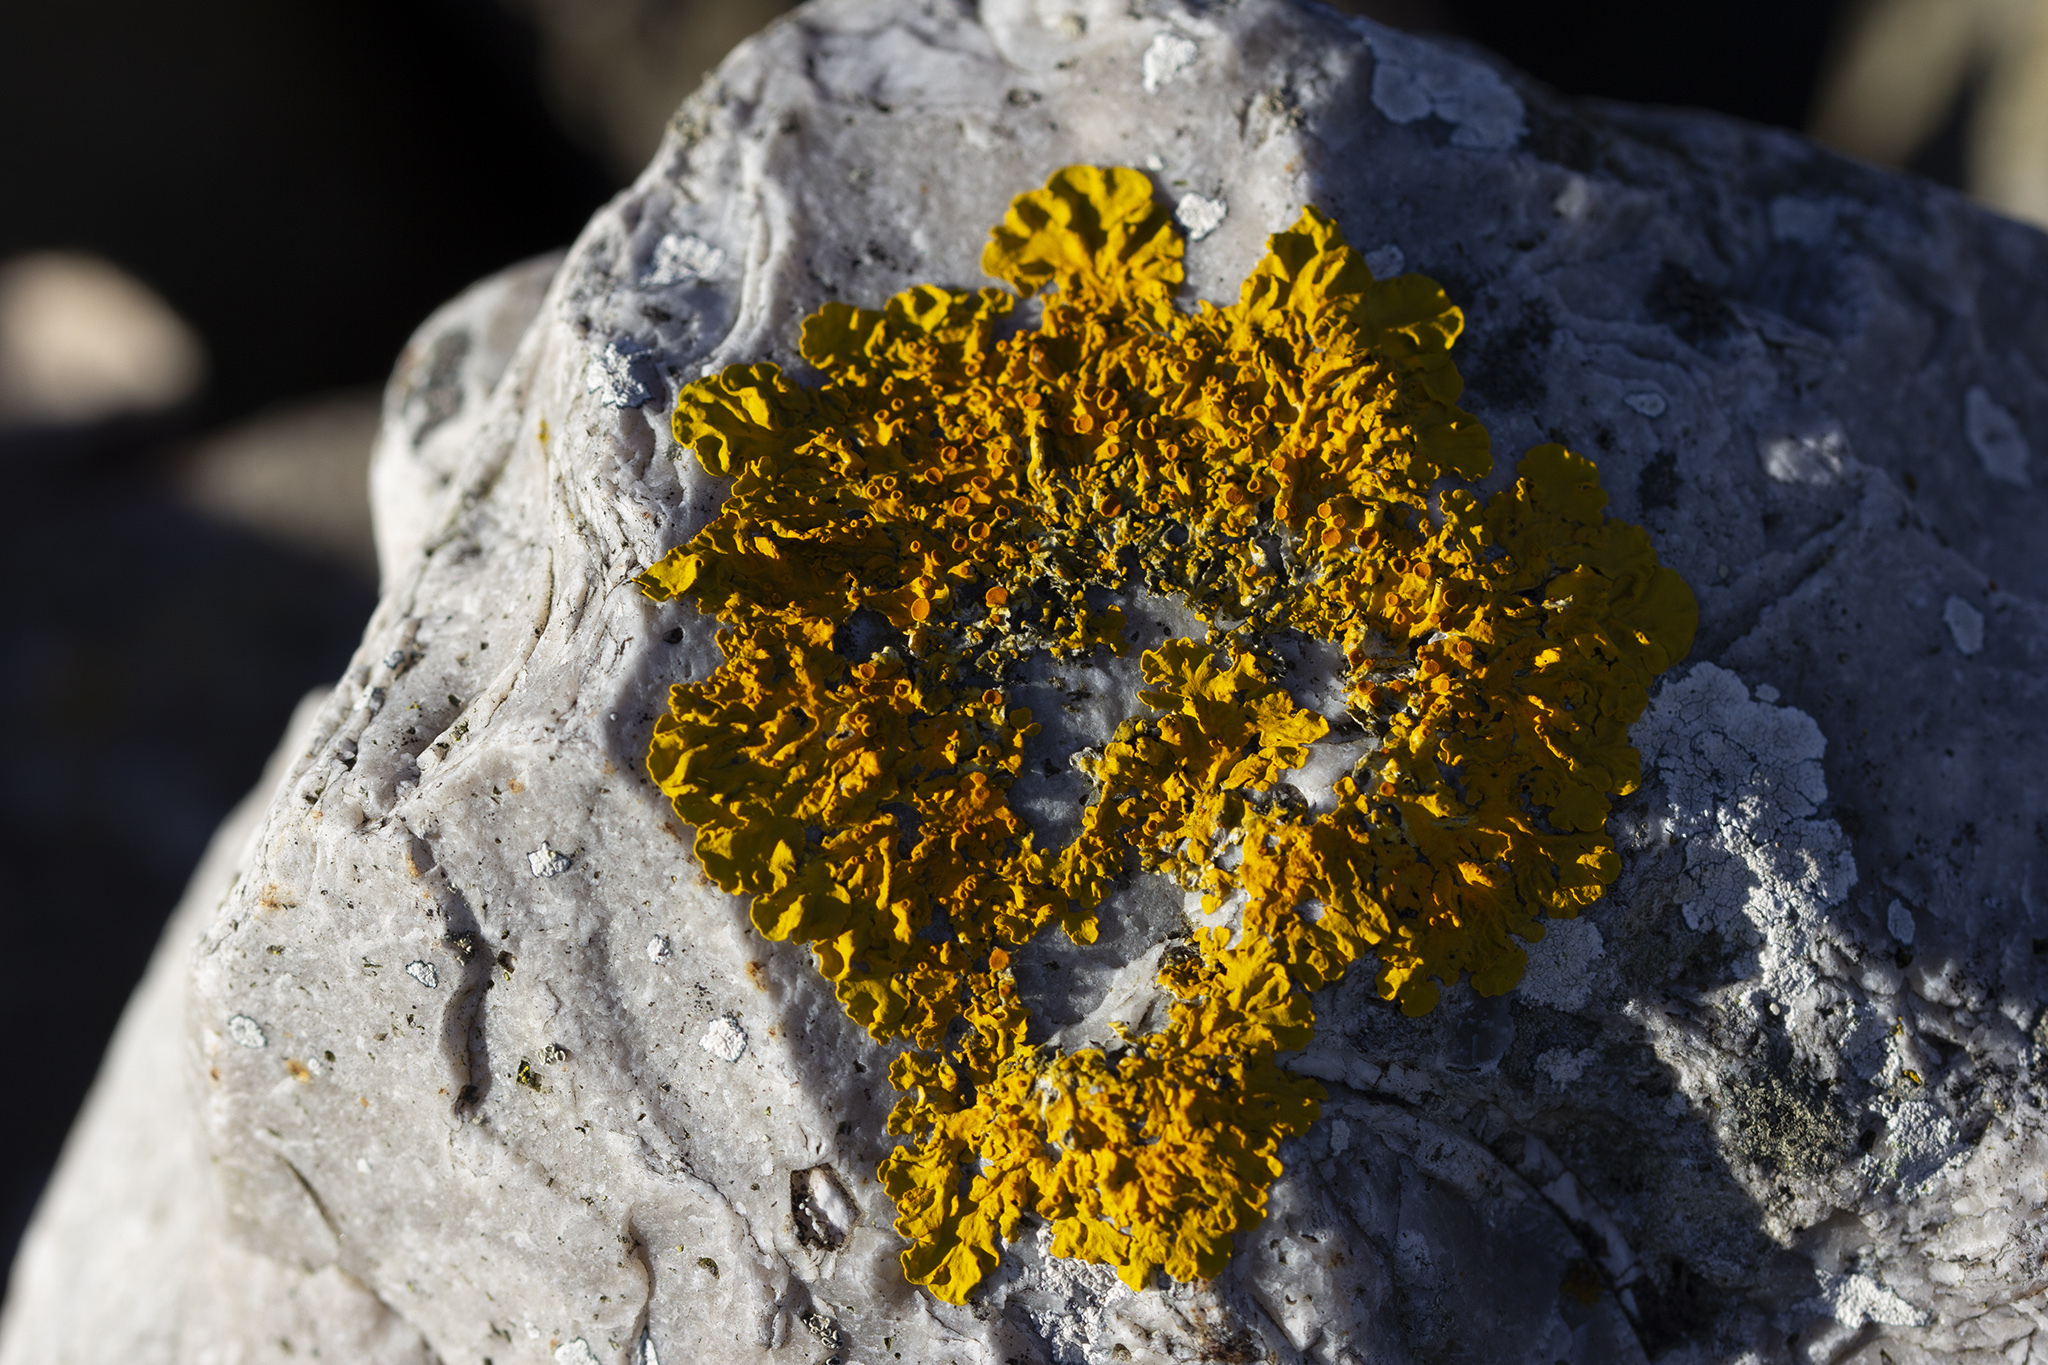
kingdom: Fungi
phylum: Ascomycota
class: Lecanoromycetes
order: Teloschistales
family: Teloschistaceae
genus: Xanthoria
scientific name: Xanthoria parietina
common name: Common orange lichen
